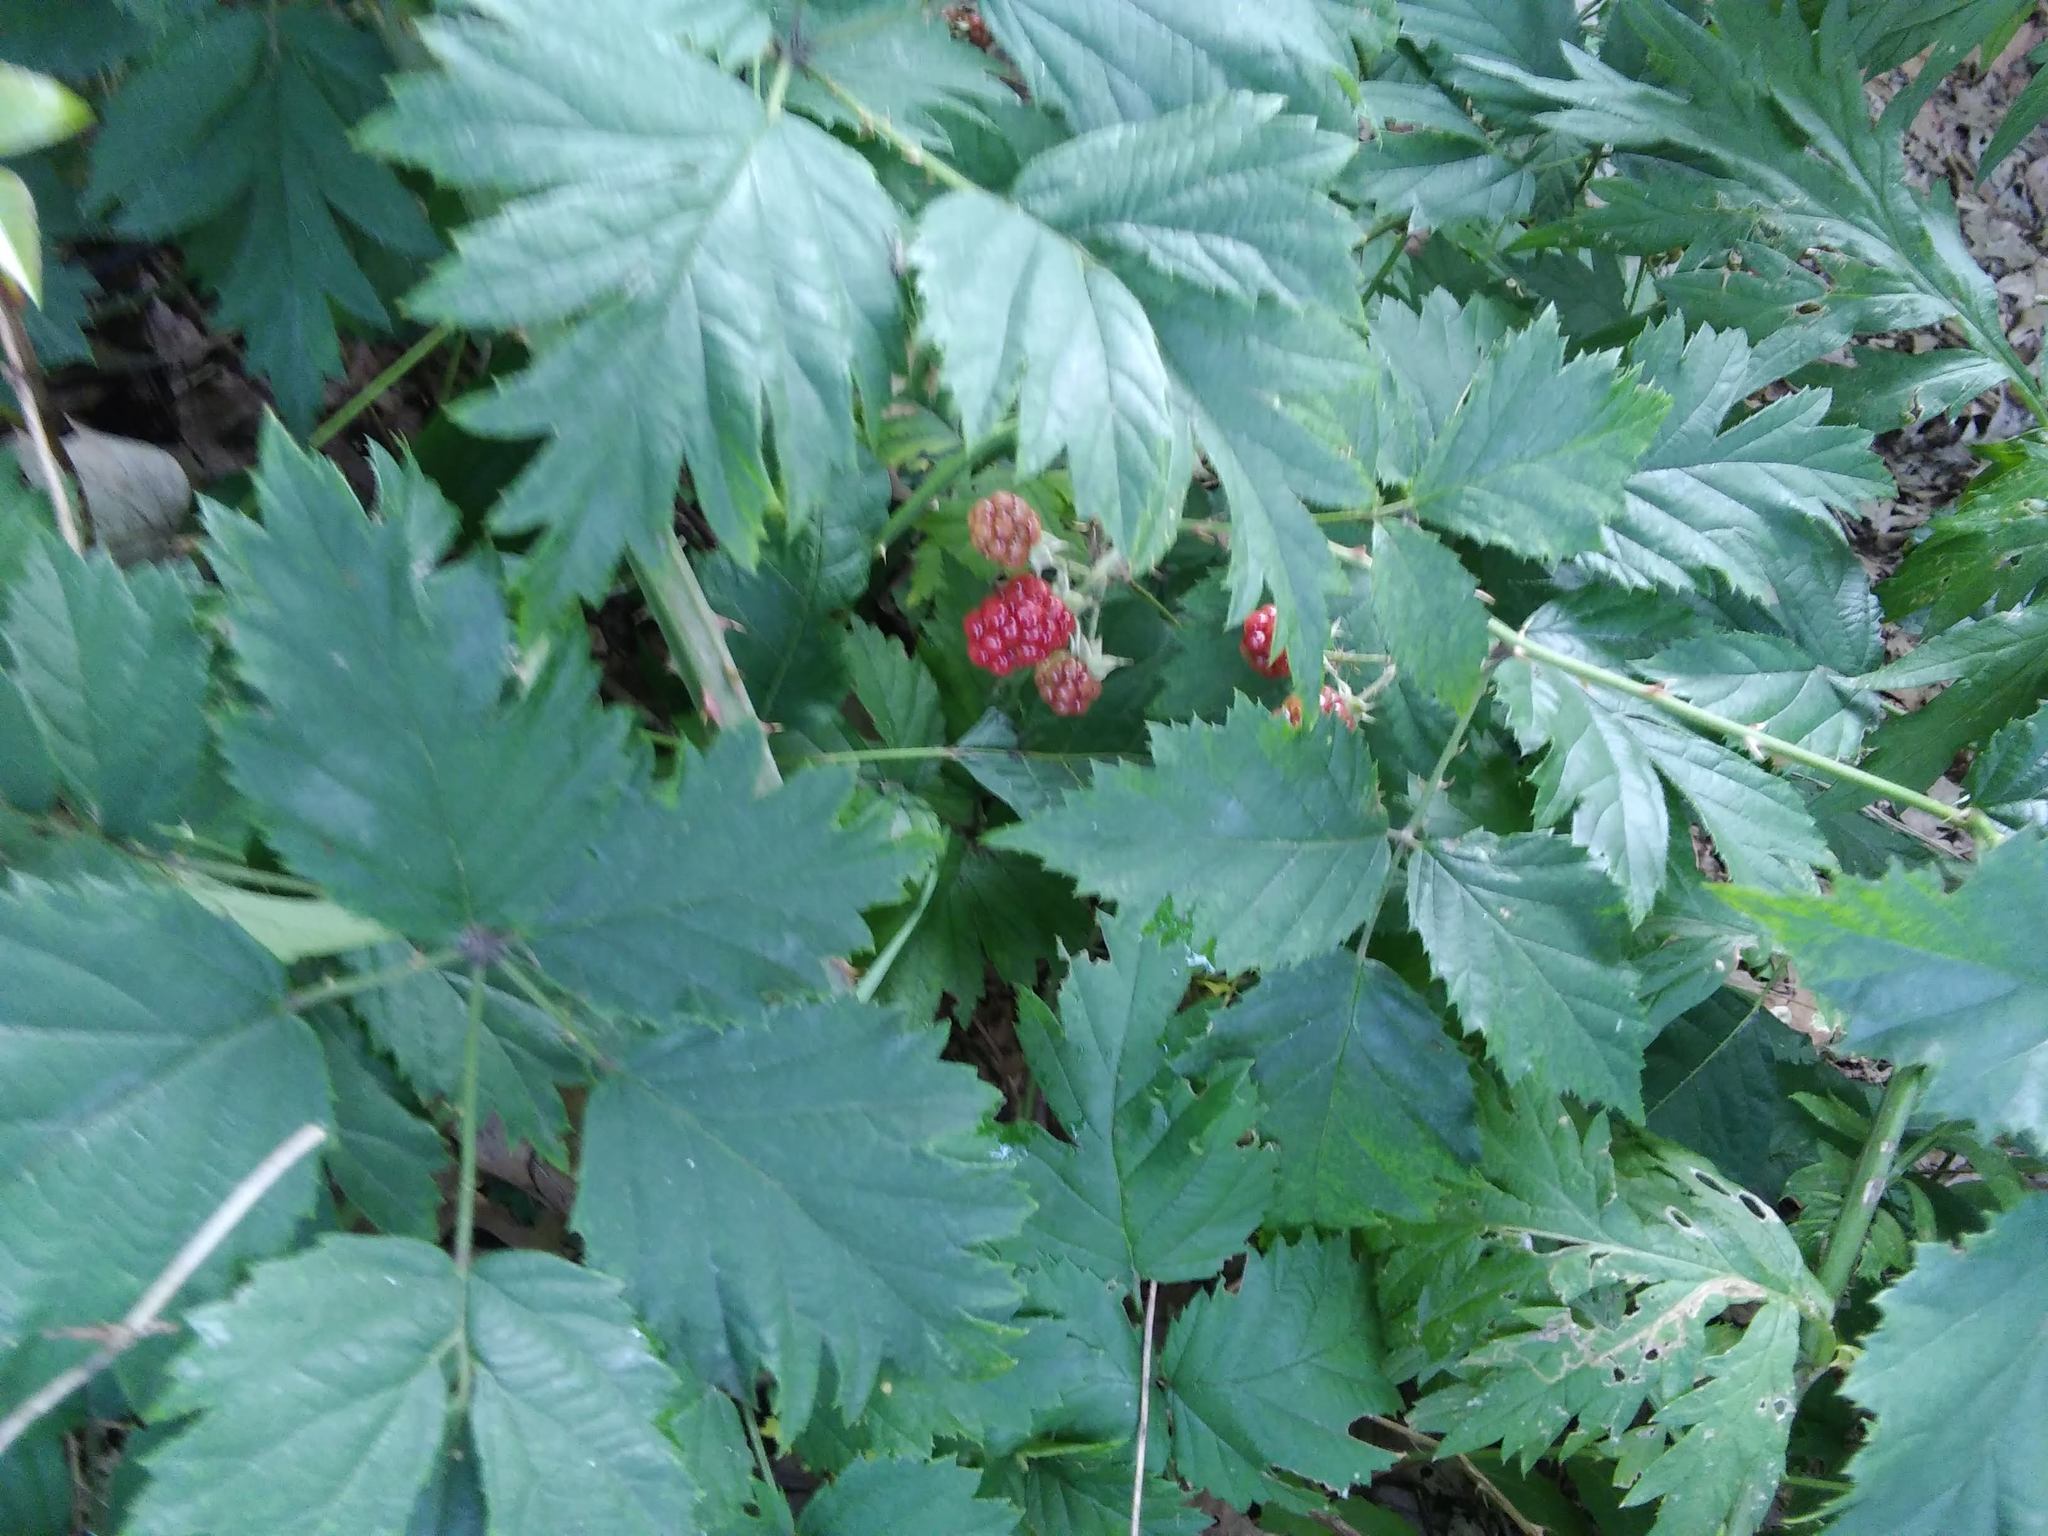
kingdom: Plantae
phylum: Tracheophyta
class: Magnoliopsida
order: Rosales
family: Rosaceae
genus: Rubus
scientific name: Rubus laciniatus
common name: Evergreen blackberry
